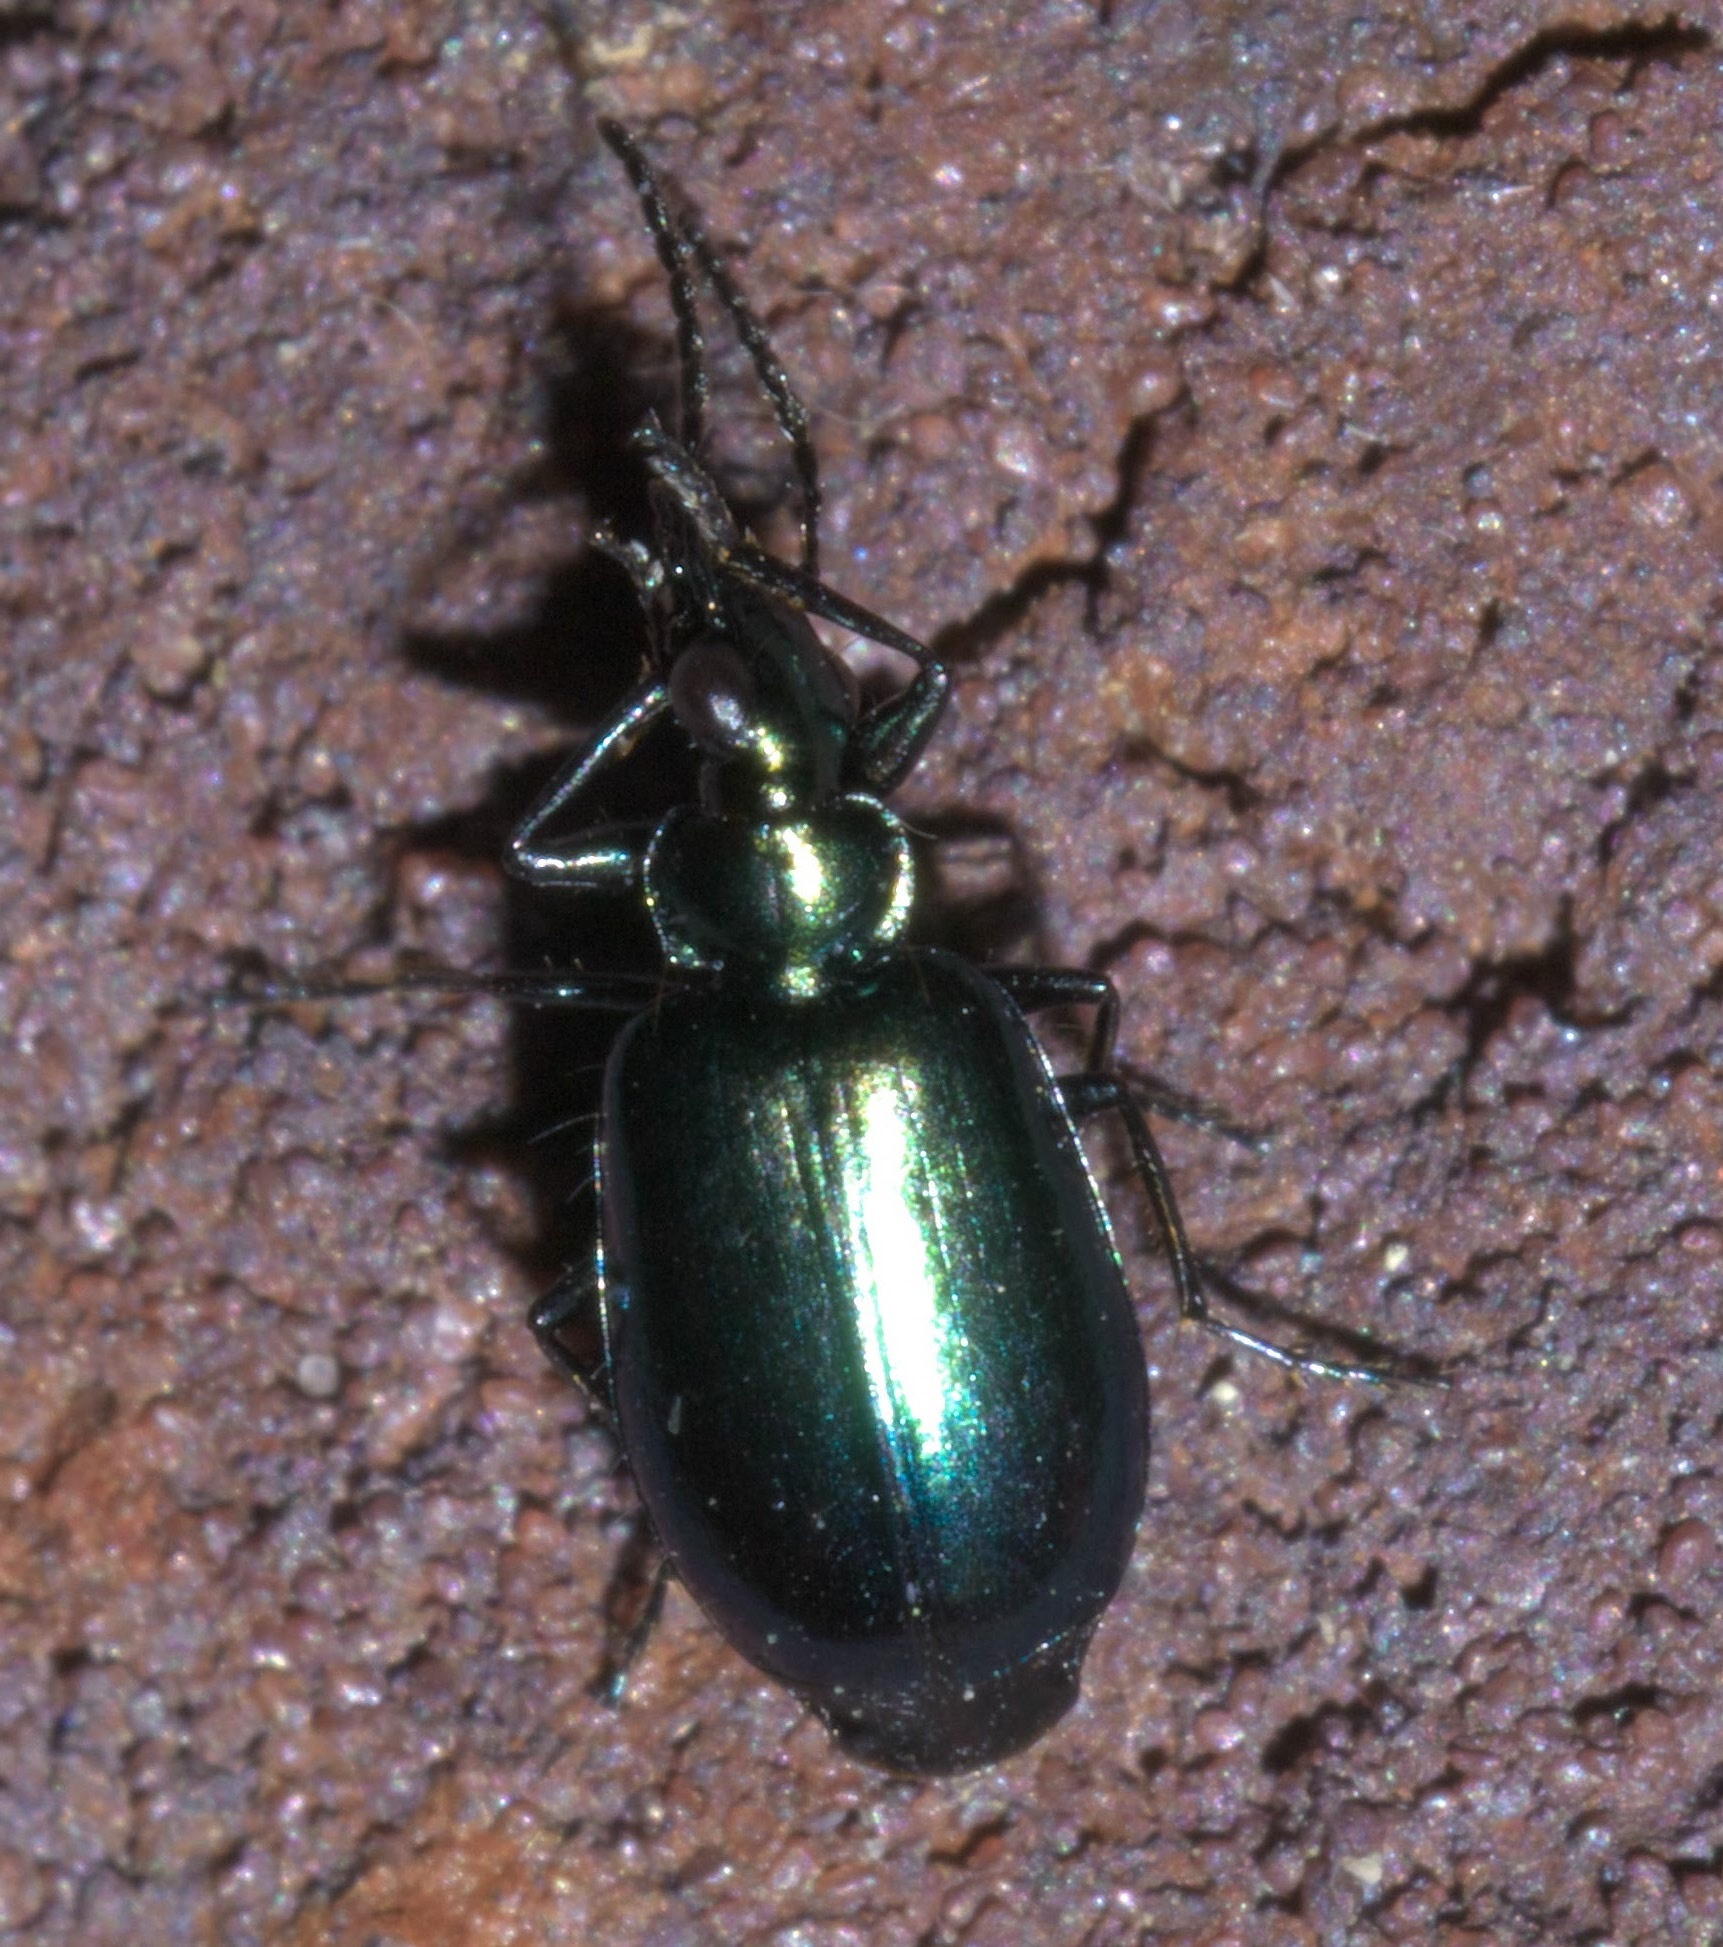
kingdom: Animalia
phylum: Arthropoda
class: Insecta
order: Coleoptera
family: Carabidae
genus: Lebia
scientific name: Lebia viridis
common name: Flower lebia beetle
